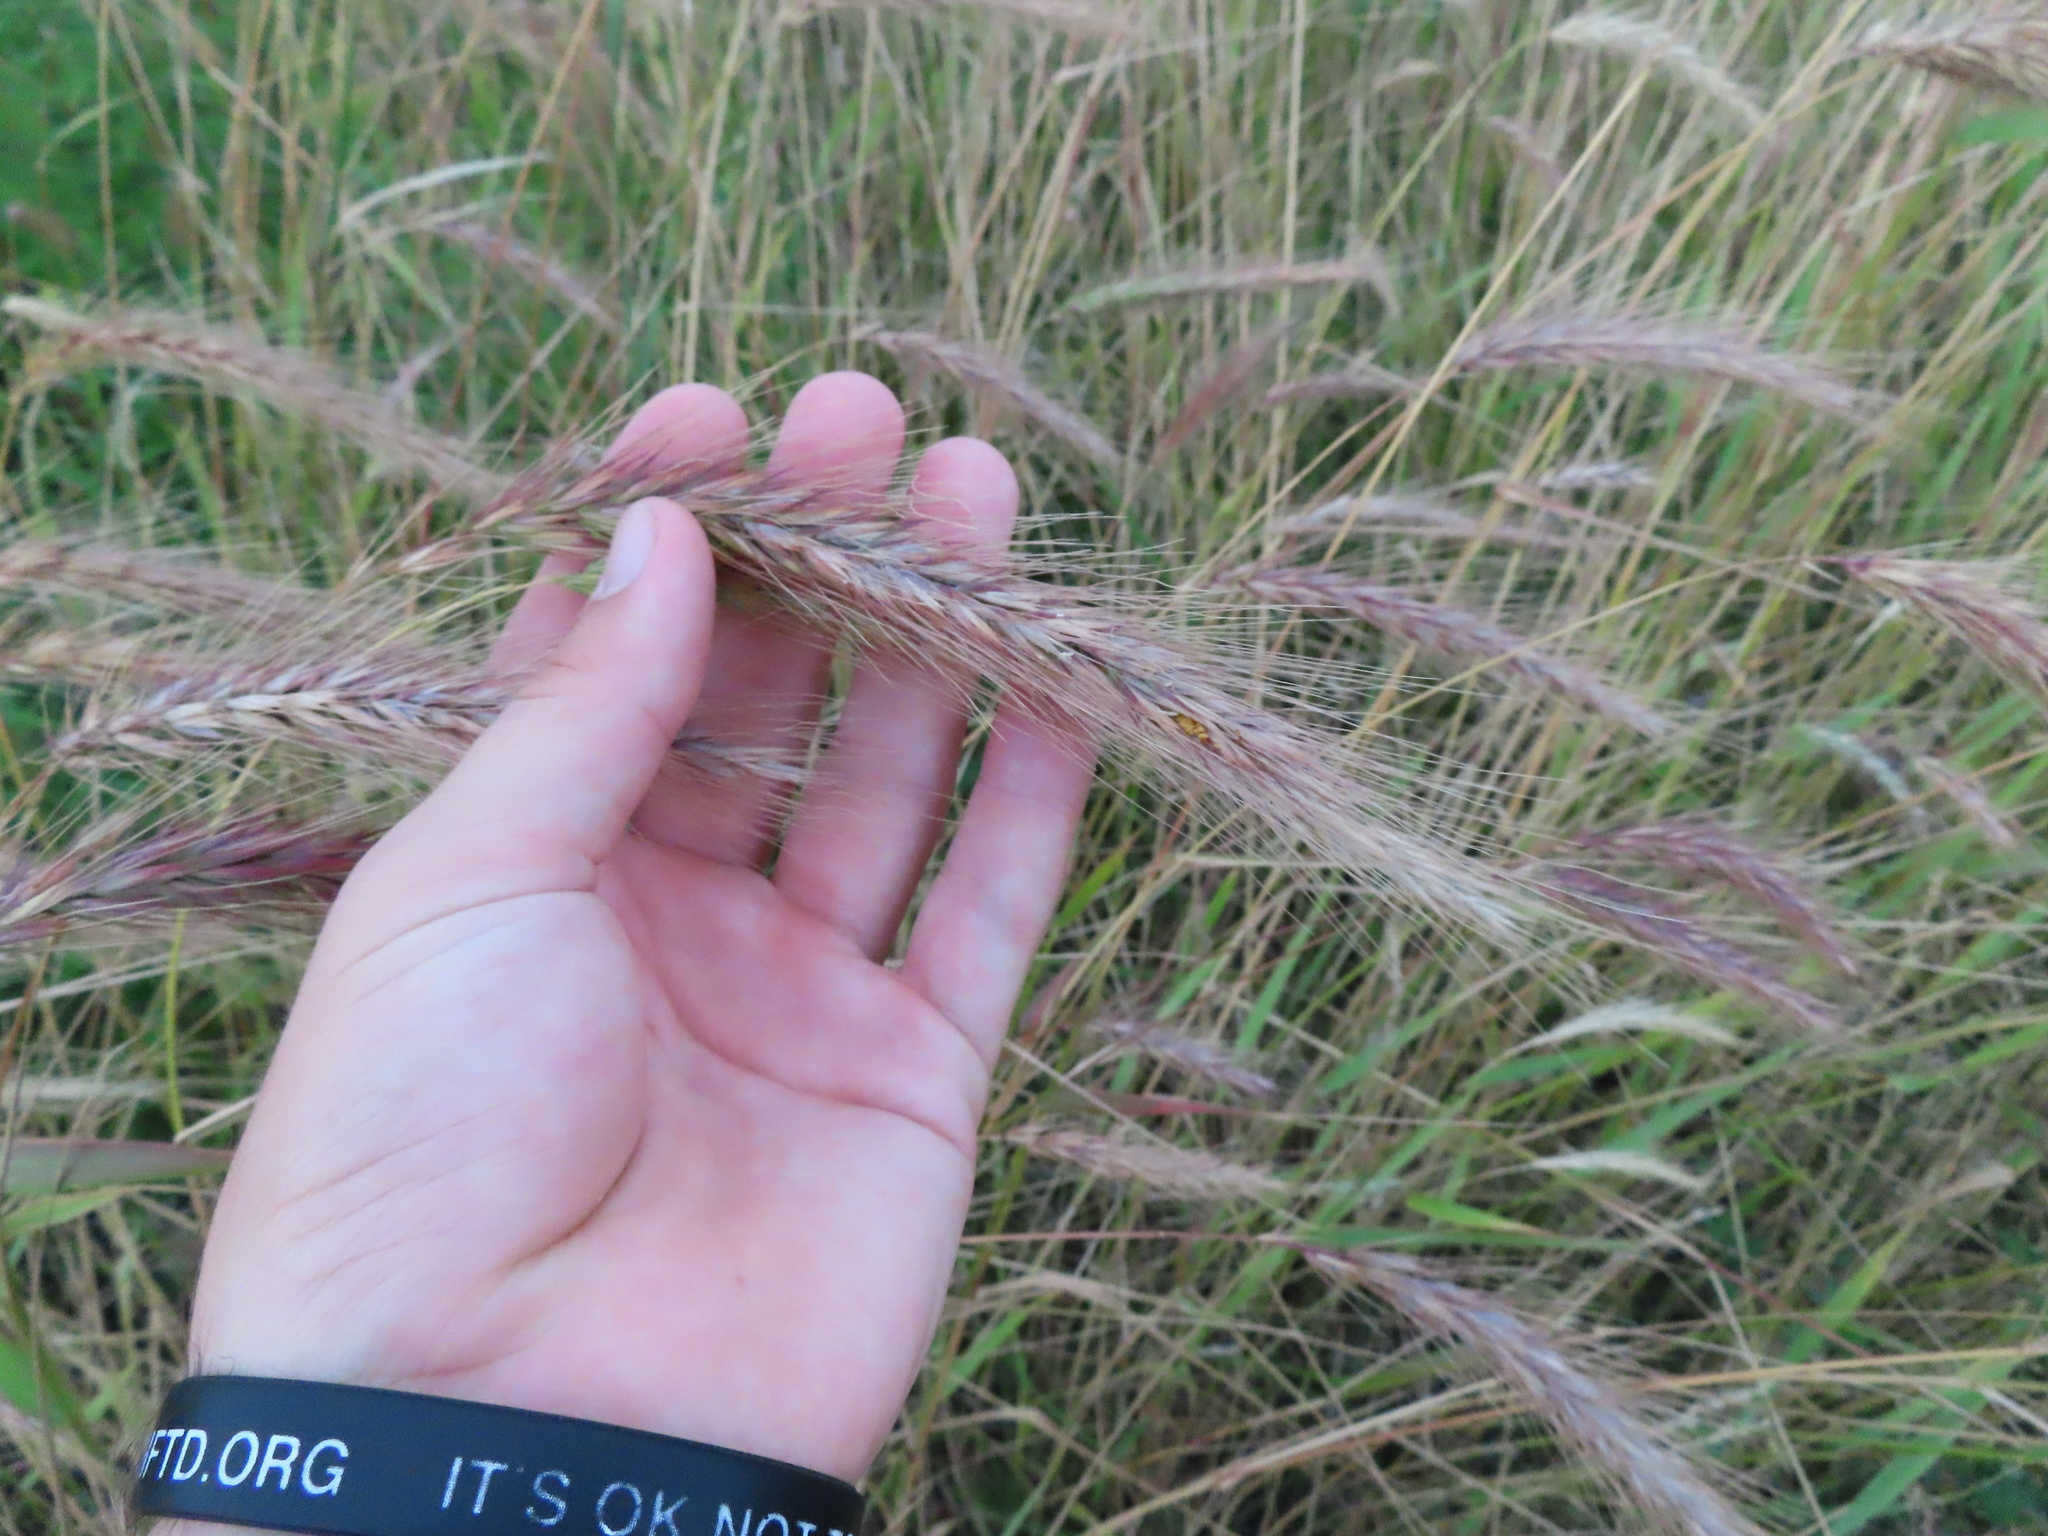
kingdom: Plantae
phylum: Tracheophyta
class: Liliopsida
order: Poales
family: Poaceae
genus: Elymus
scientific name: Elymus canadensis
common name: Canada wild rye
